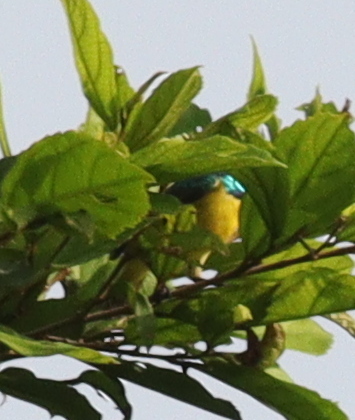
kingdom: Animalia
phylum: Chordata
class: Aves
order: Passeriformes
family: Nectariniidae
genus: Hedydipna
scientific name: Hedydipna collaris
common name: Collared sunbird
